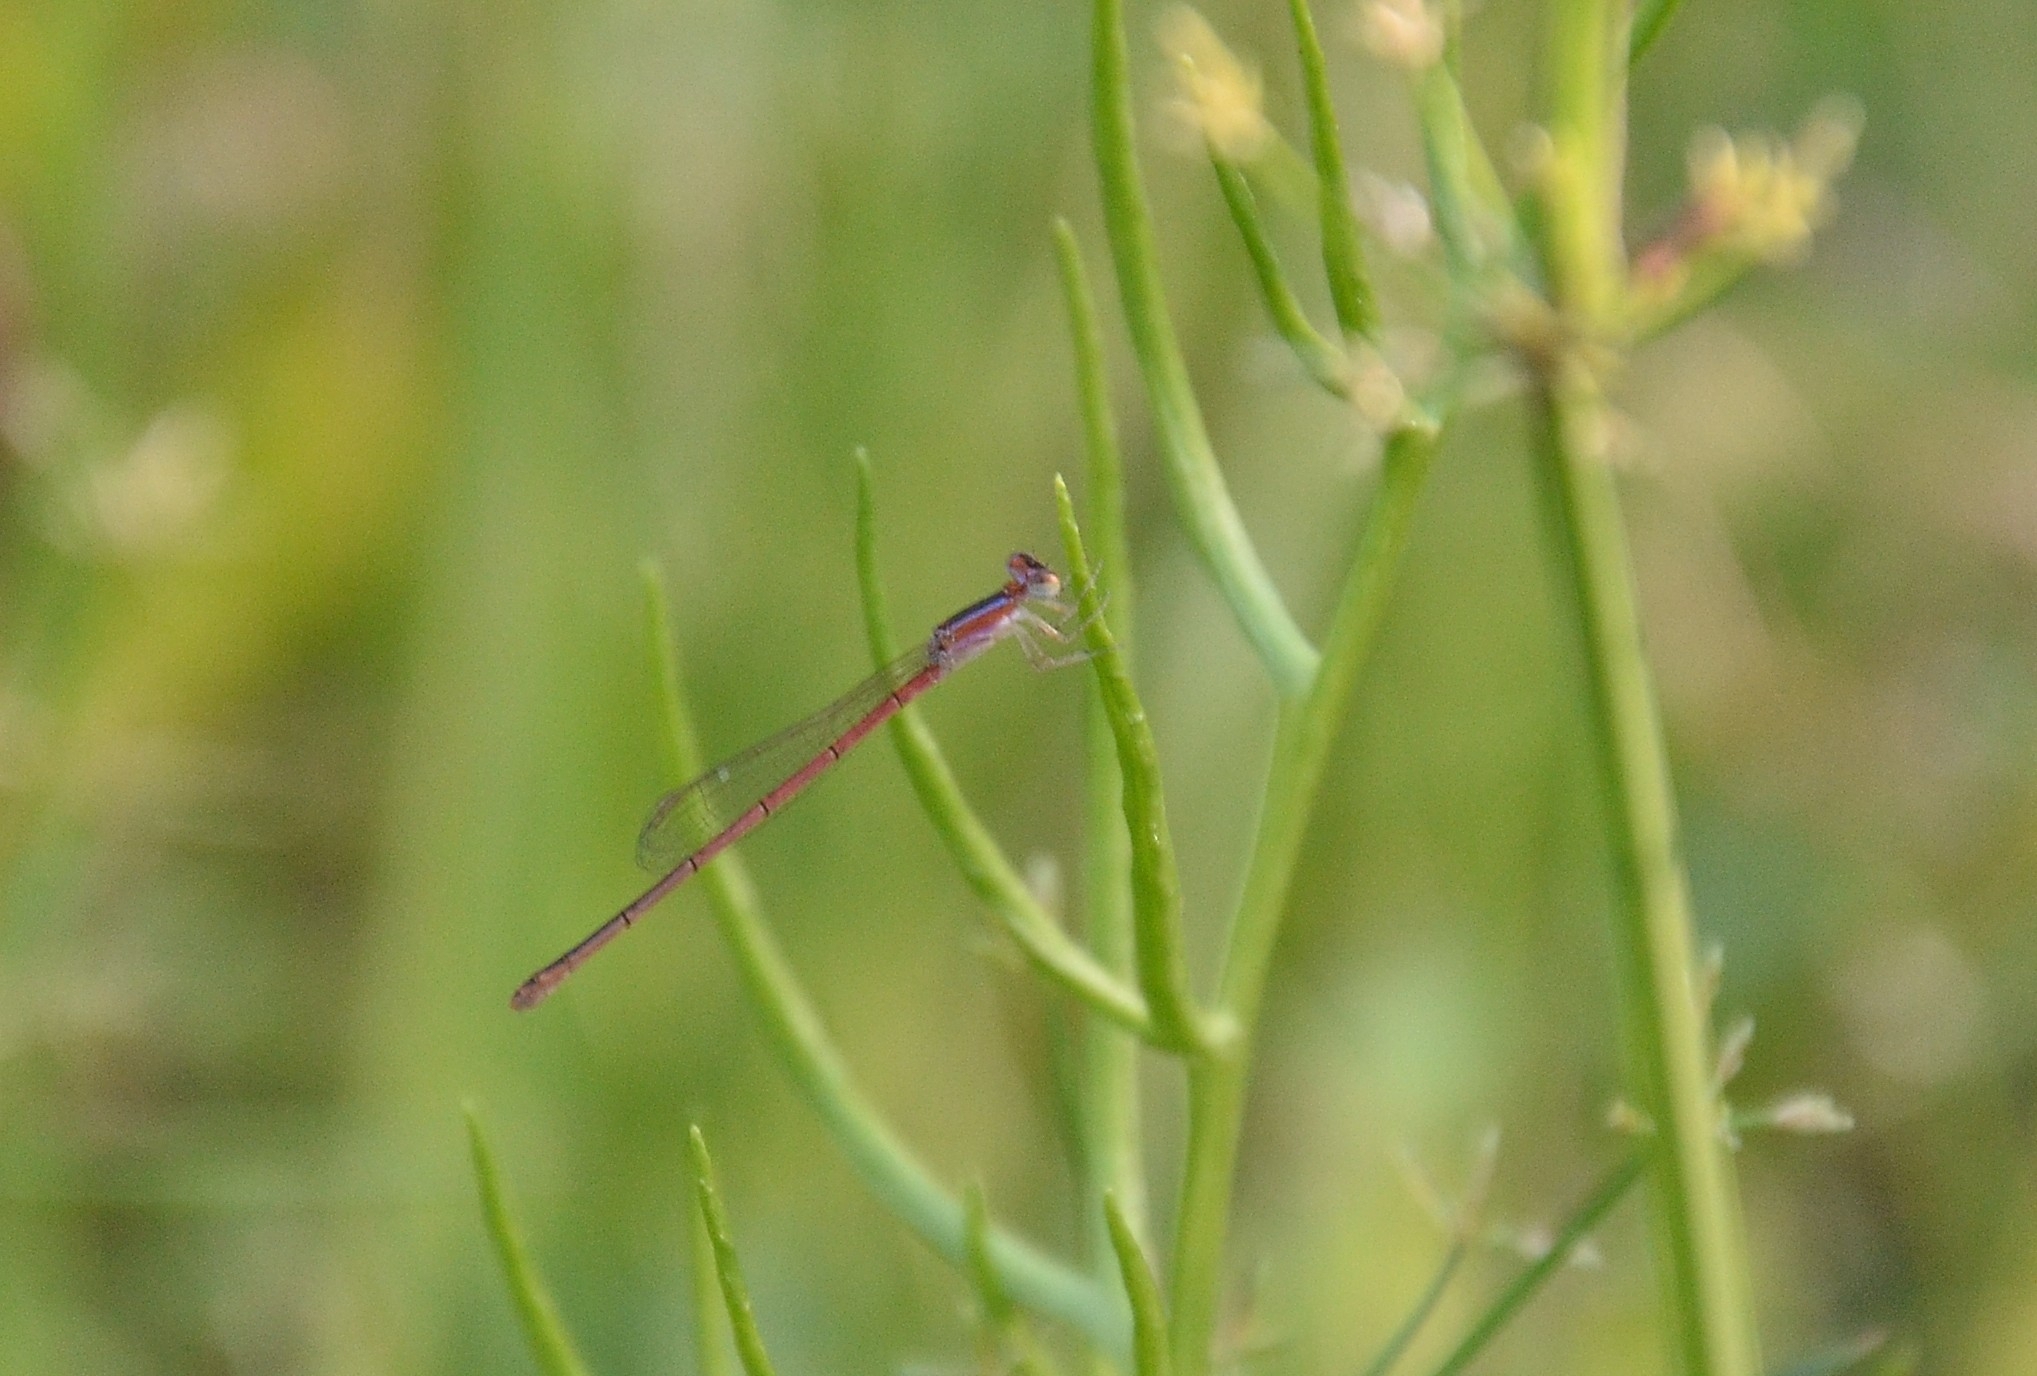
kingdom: Animalia
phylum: Arthropoda
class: Insecta
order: Odonata
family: Coenagrionidae
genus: Agriocnemis
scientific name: Agriocnemis pygmaea
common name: Pygmy wisp
